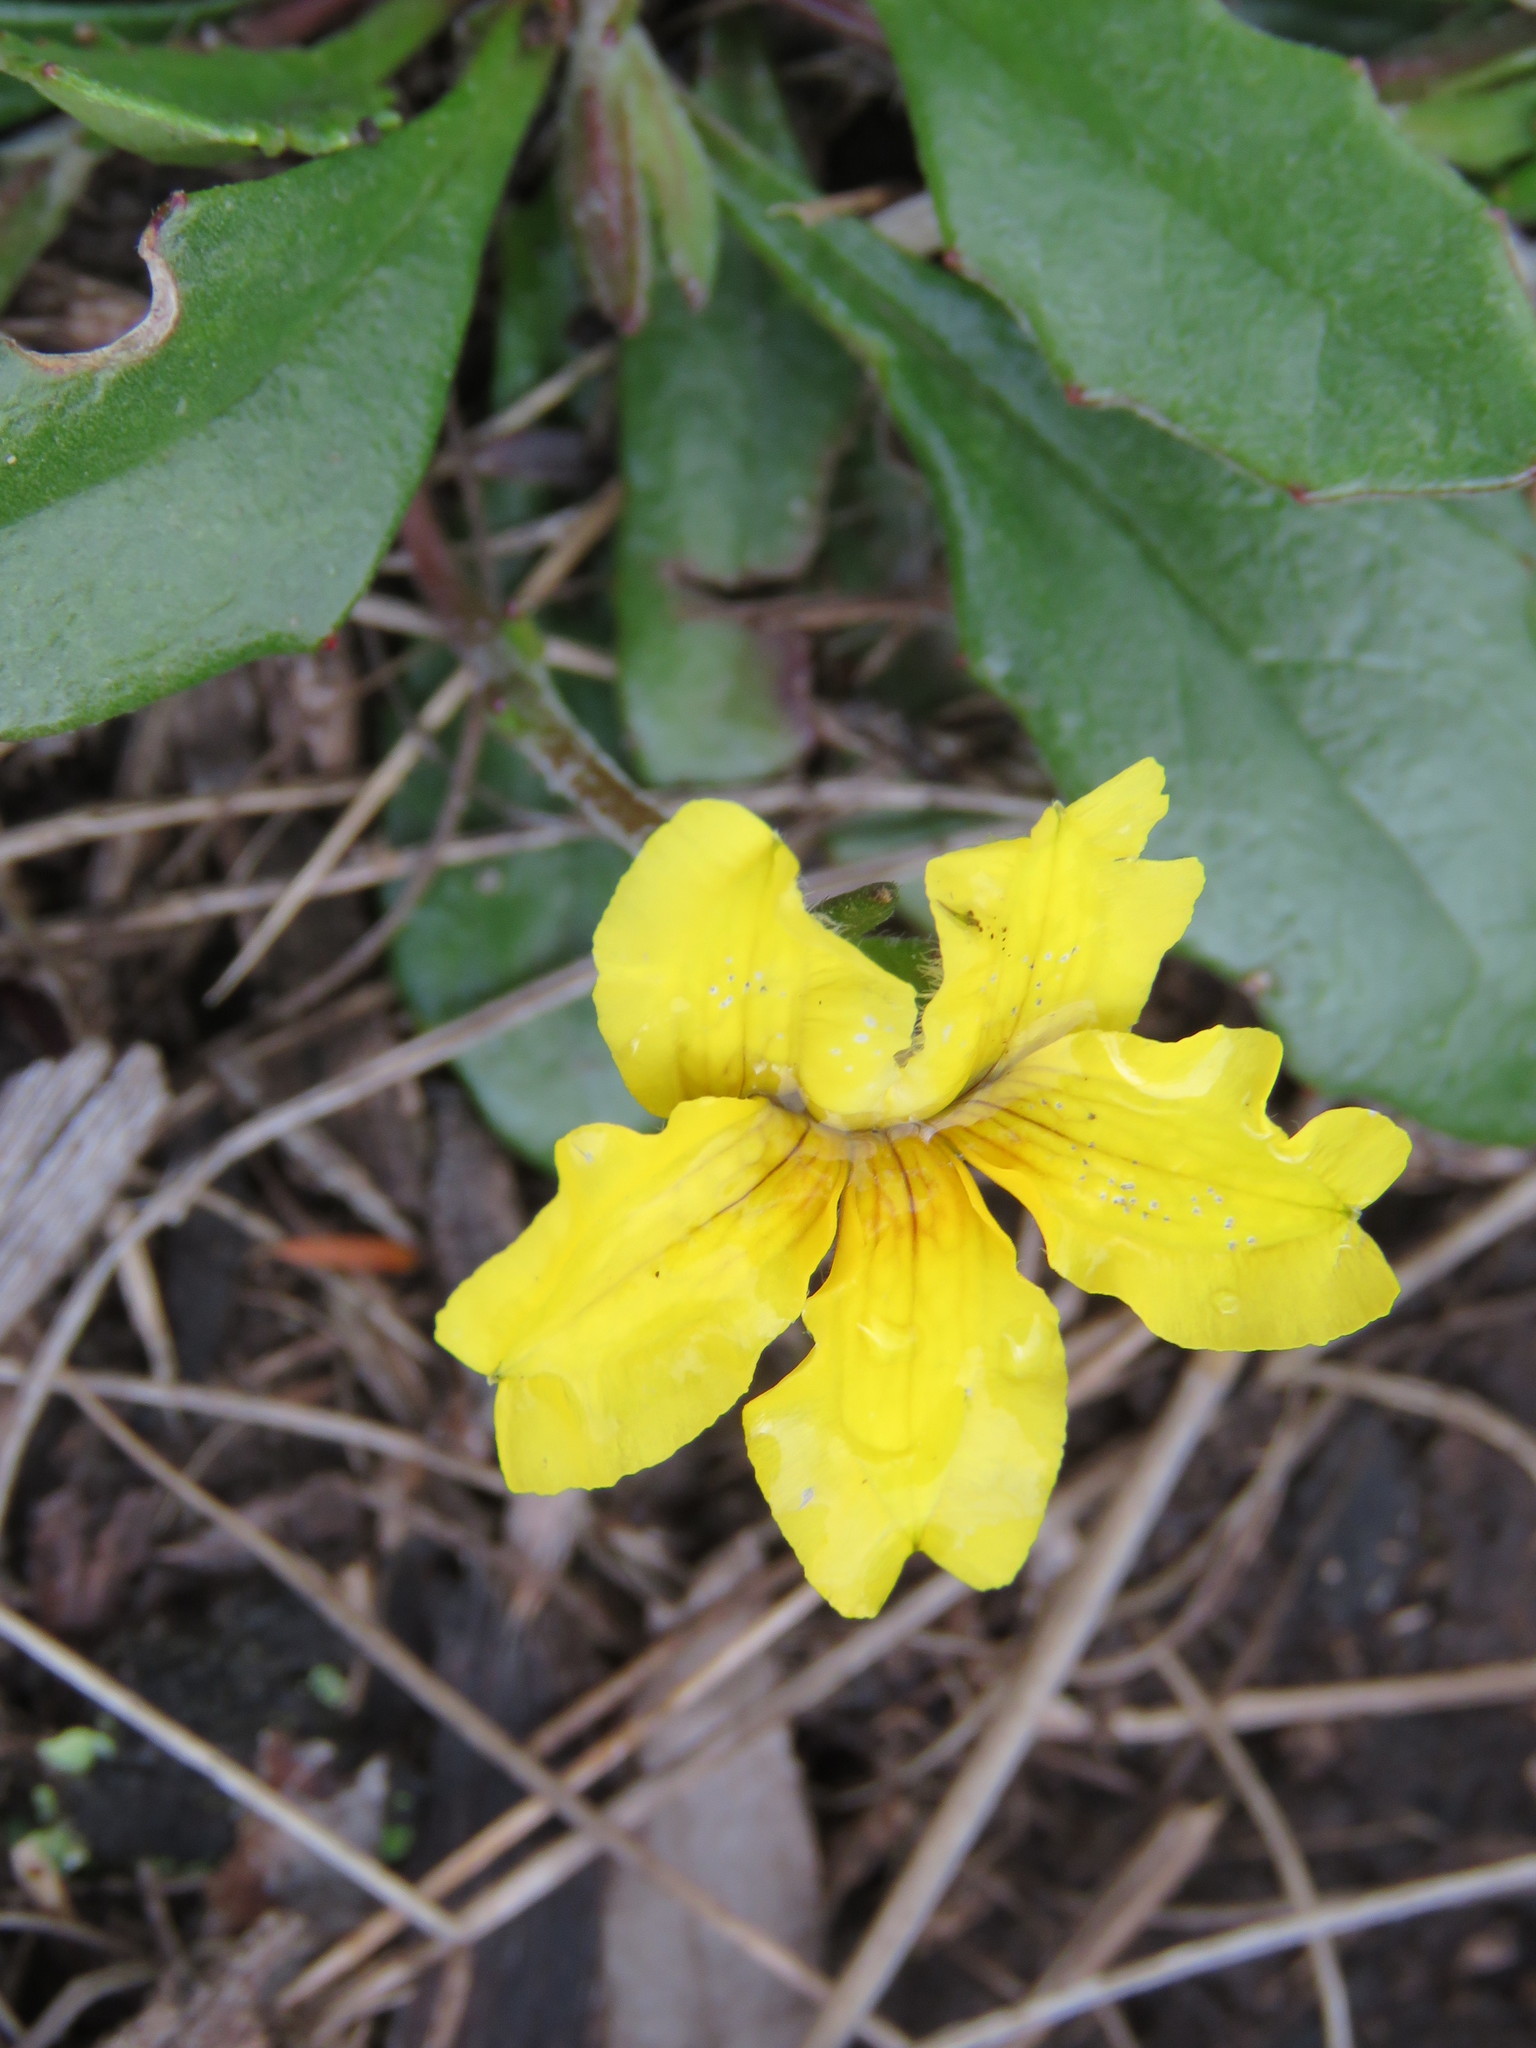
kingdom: Plantae
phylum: Tracheophyta
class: Magnoliopsida
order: Asterales
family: Goodeniaceae
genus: Goodenia
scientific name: Goodenia lanata
